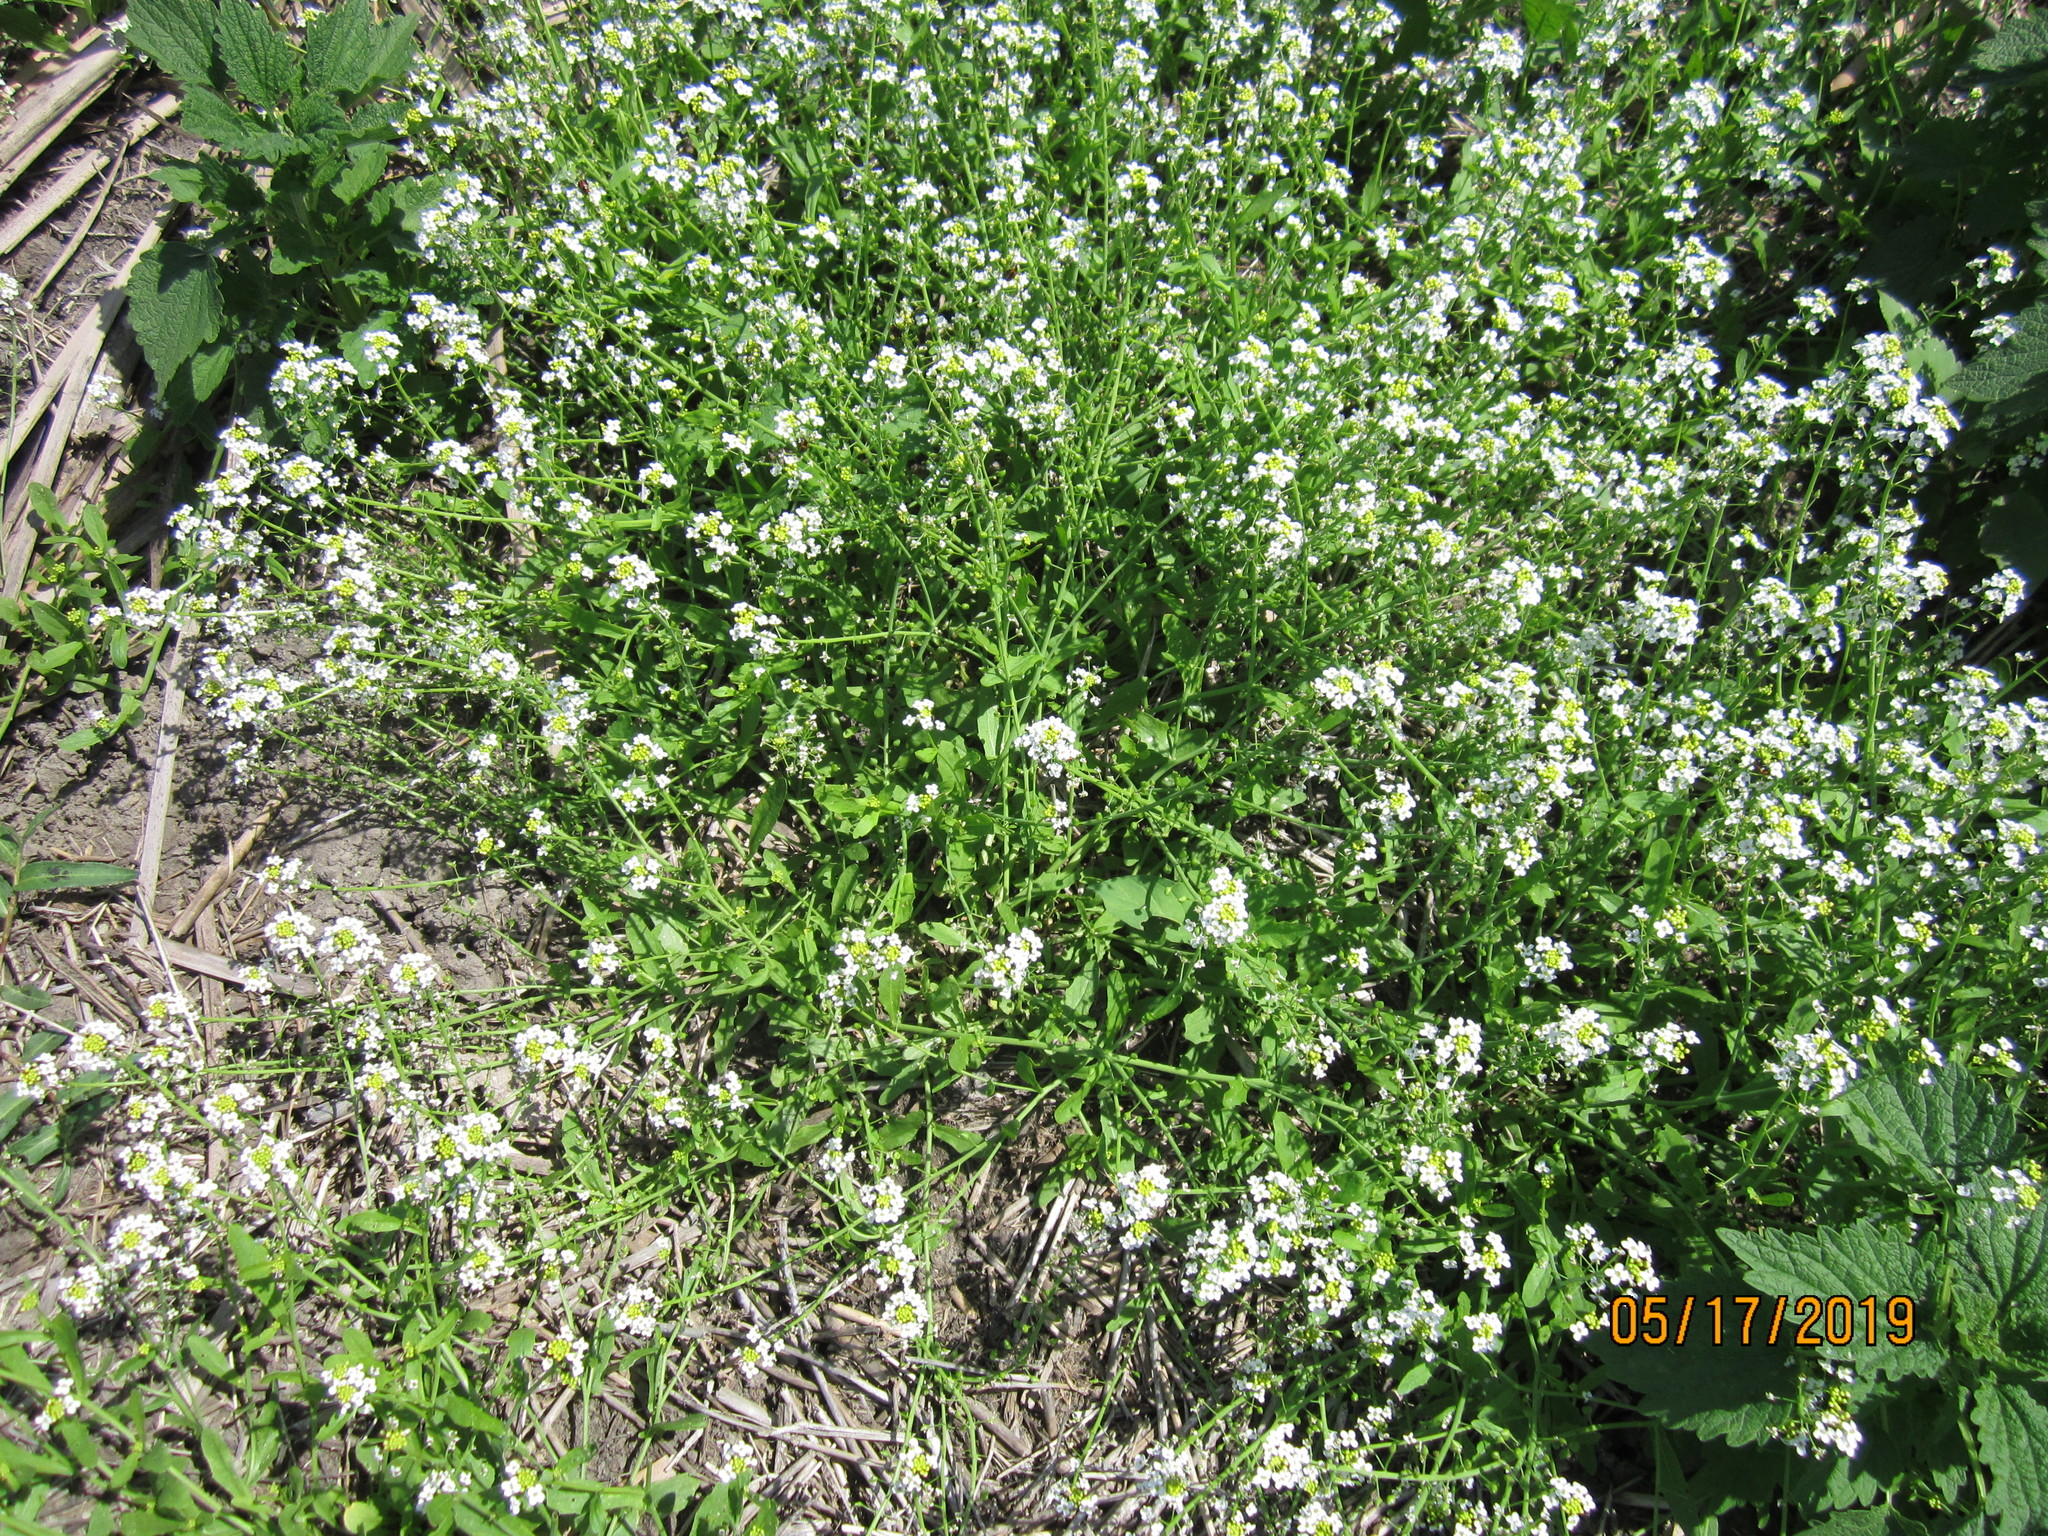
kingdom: Plantae
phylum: Tracheophyta
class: Magnoliopsida
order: Brassicales
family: Brassicaceae
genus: Calepina
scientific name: Calepina irregularis
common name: White ballmustard
